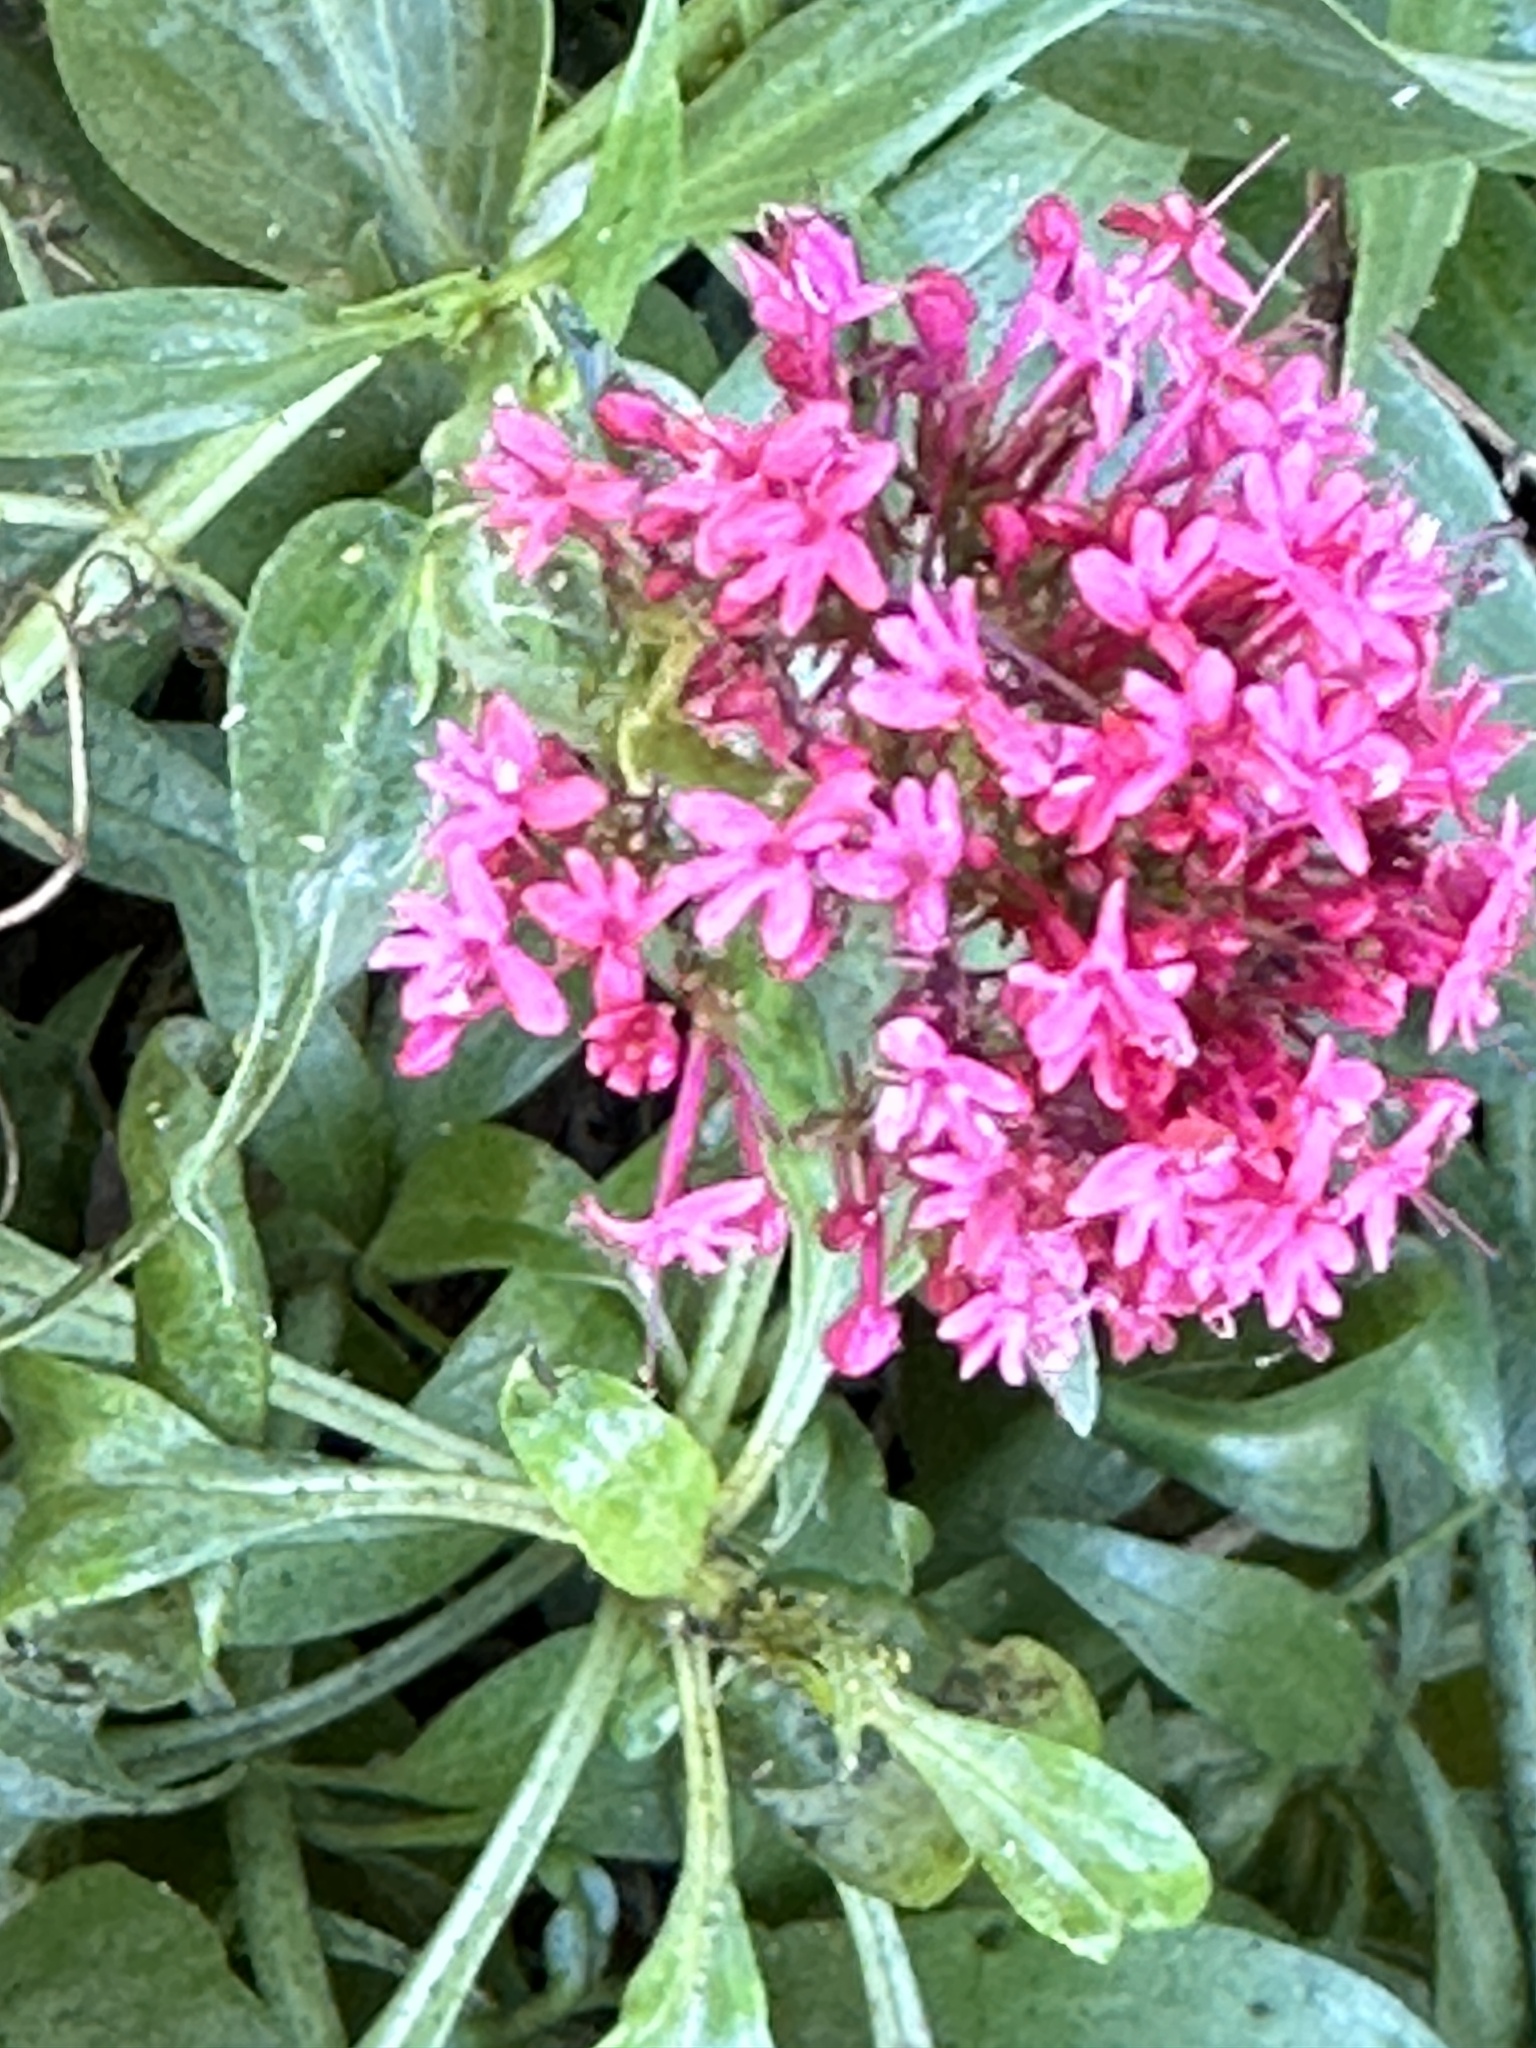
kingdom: Plantae
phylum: Tracheophyta
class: Magnoliopsida
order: Dipsacales
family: Caprifoliaceae
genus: Centranthus
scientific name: Centranthus ruber
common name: Red valerian
